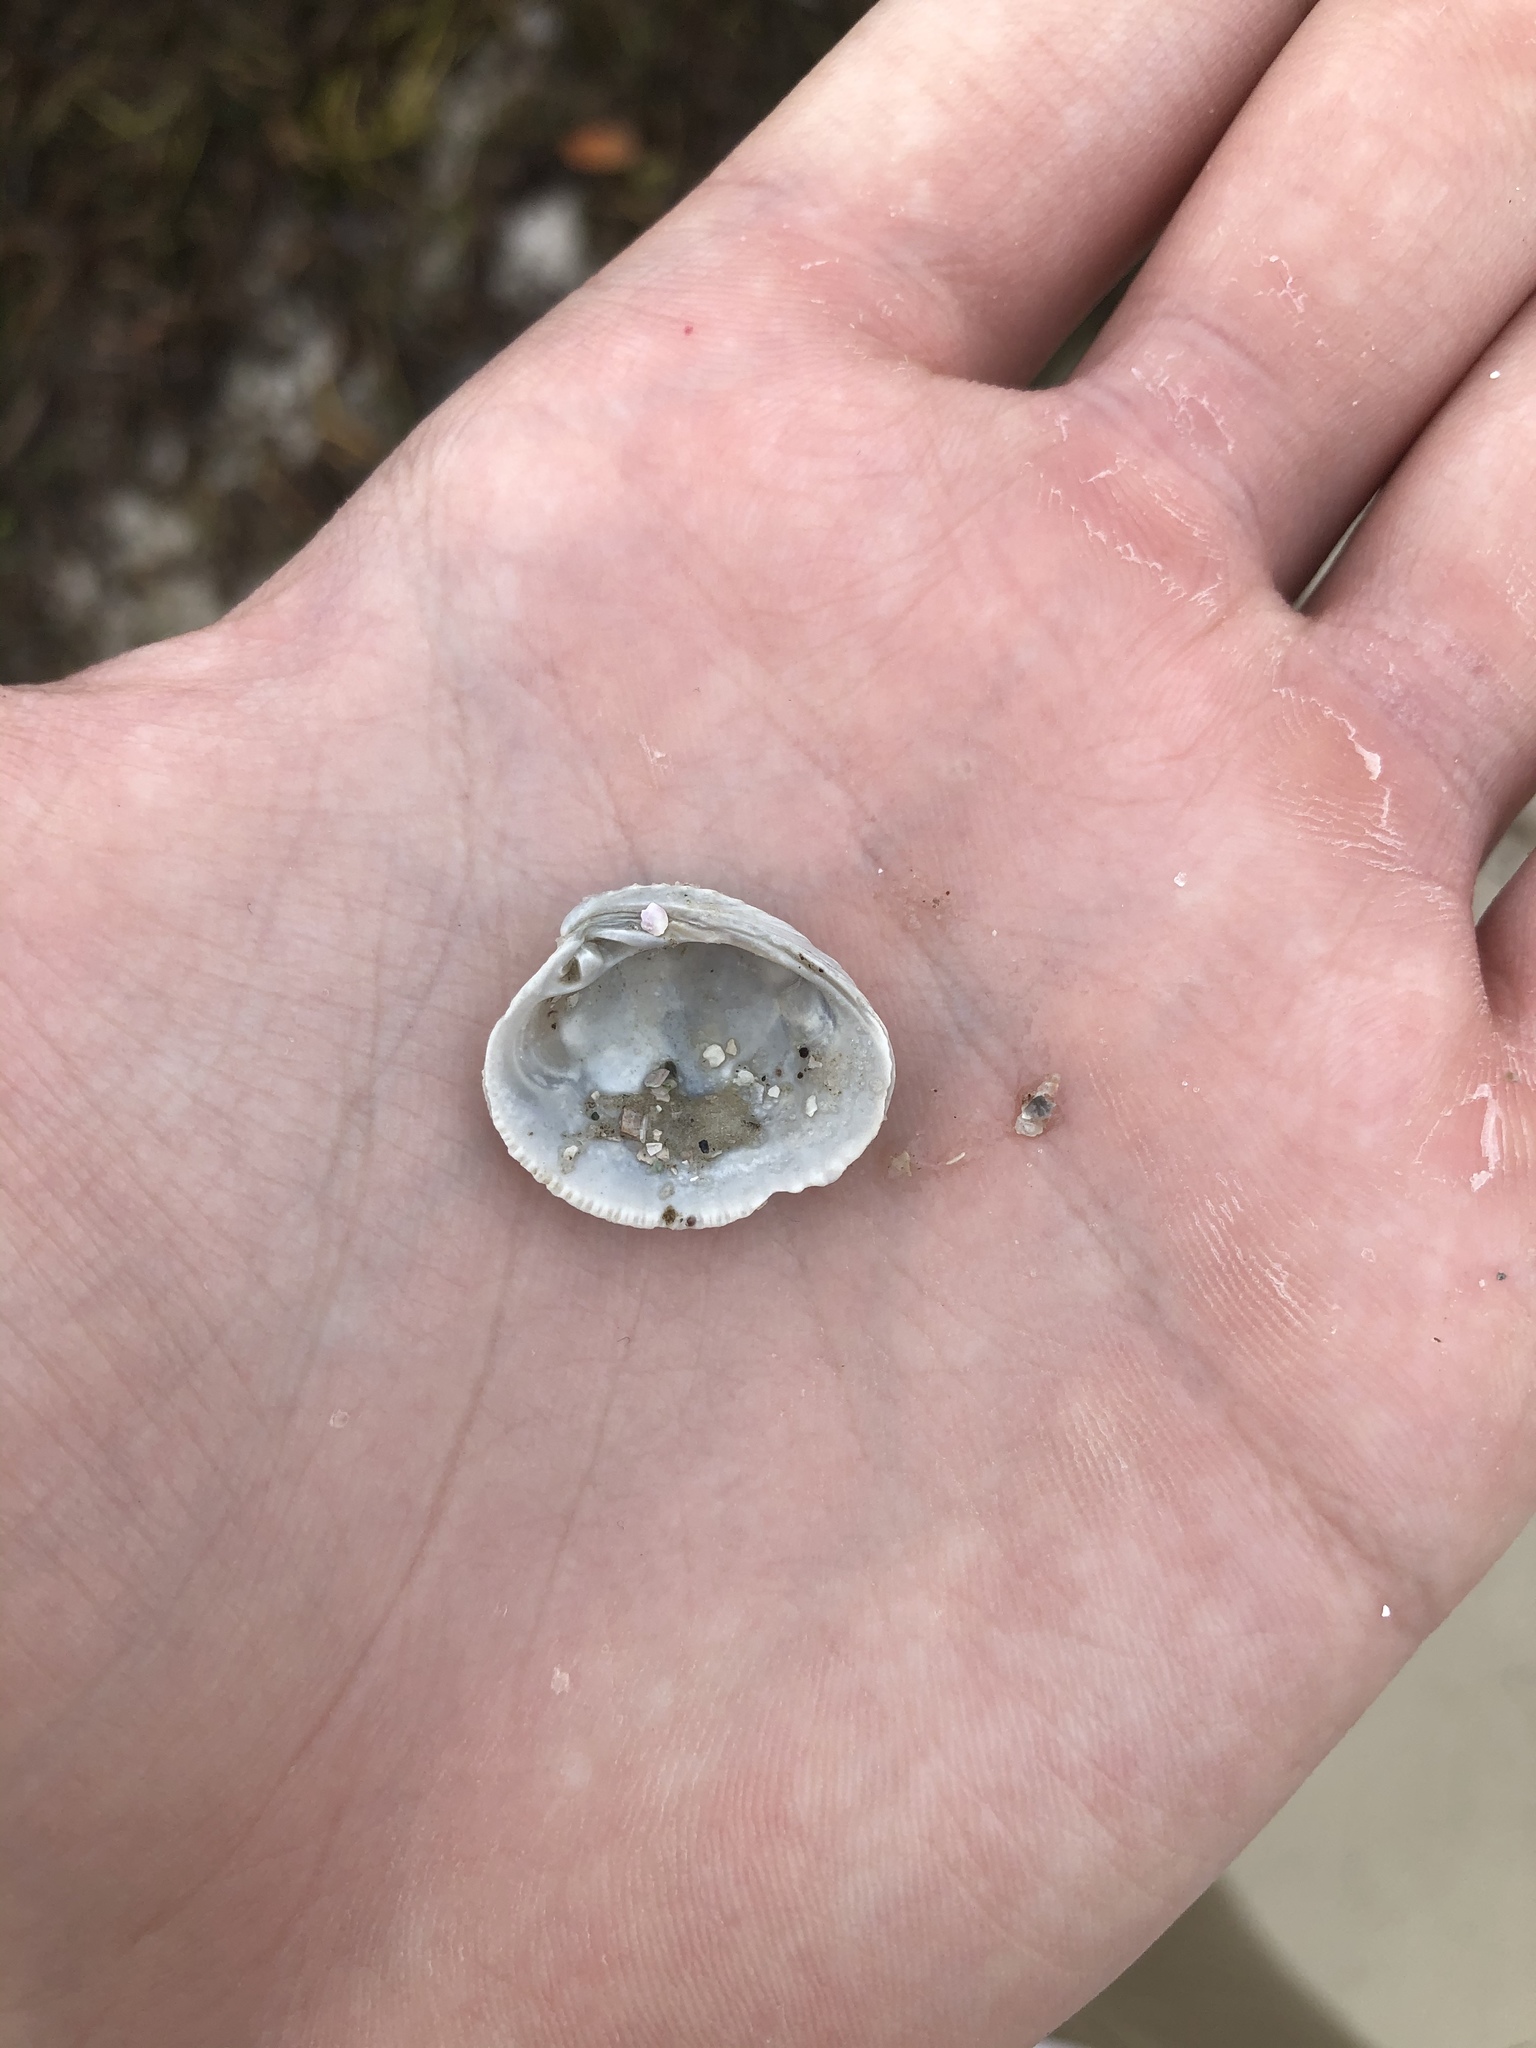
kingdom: Animalia
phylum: Mollusca
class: Bivalvia
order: Venerida
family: Veneridae
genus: Chione
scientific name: Chione elevata
